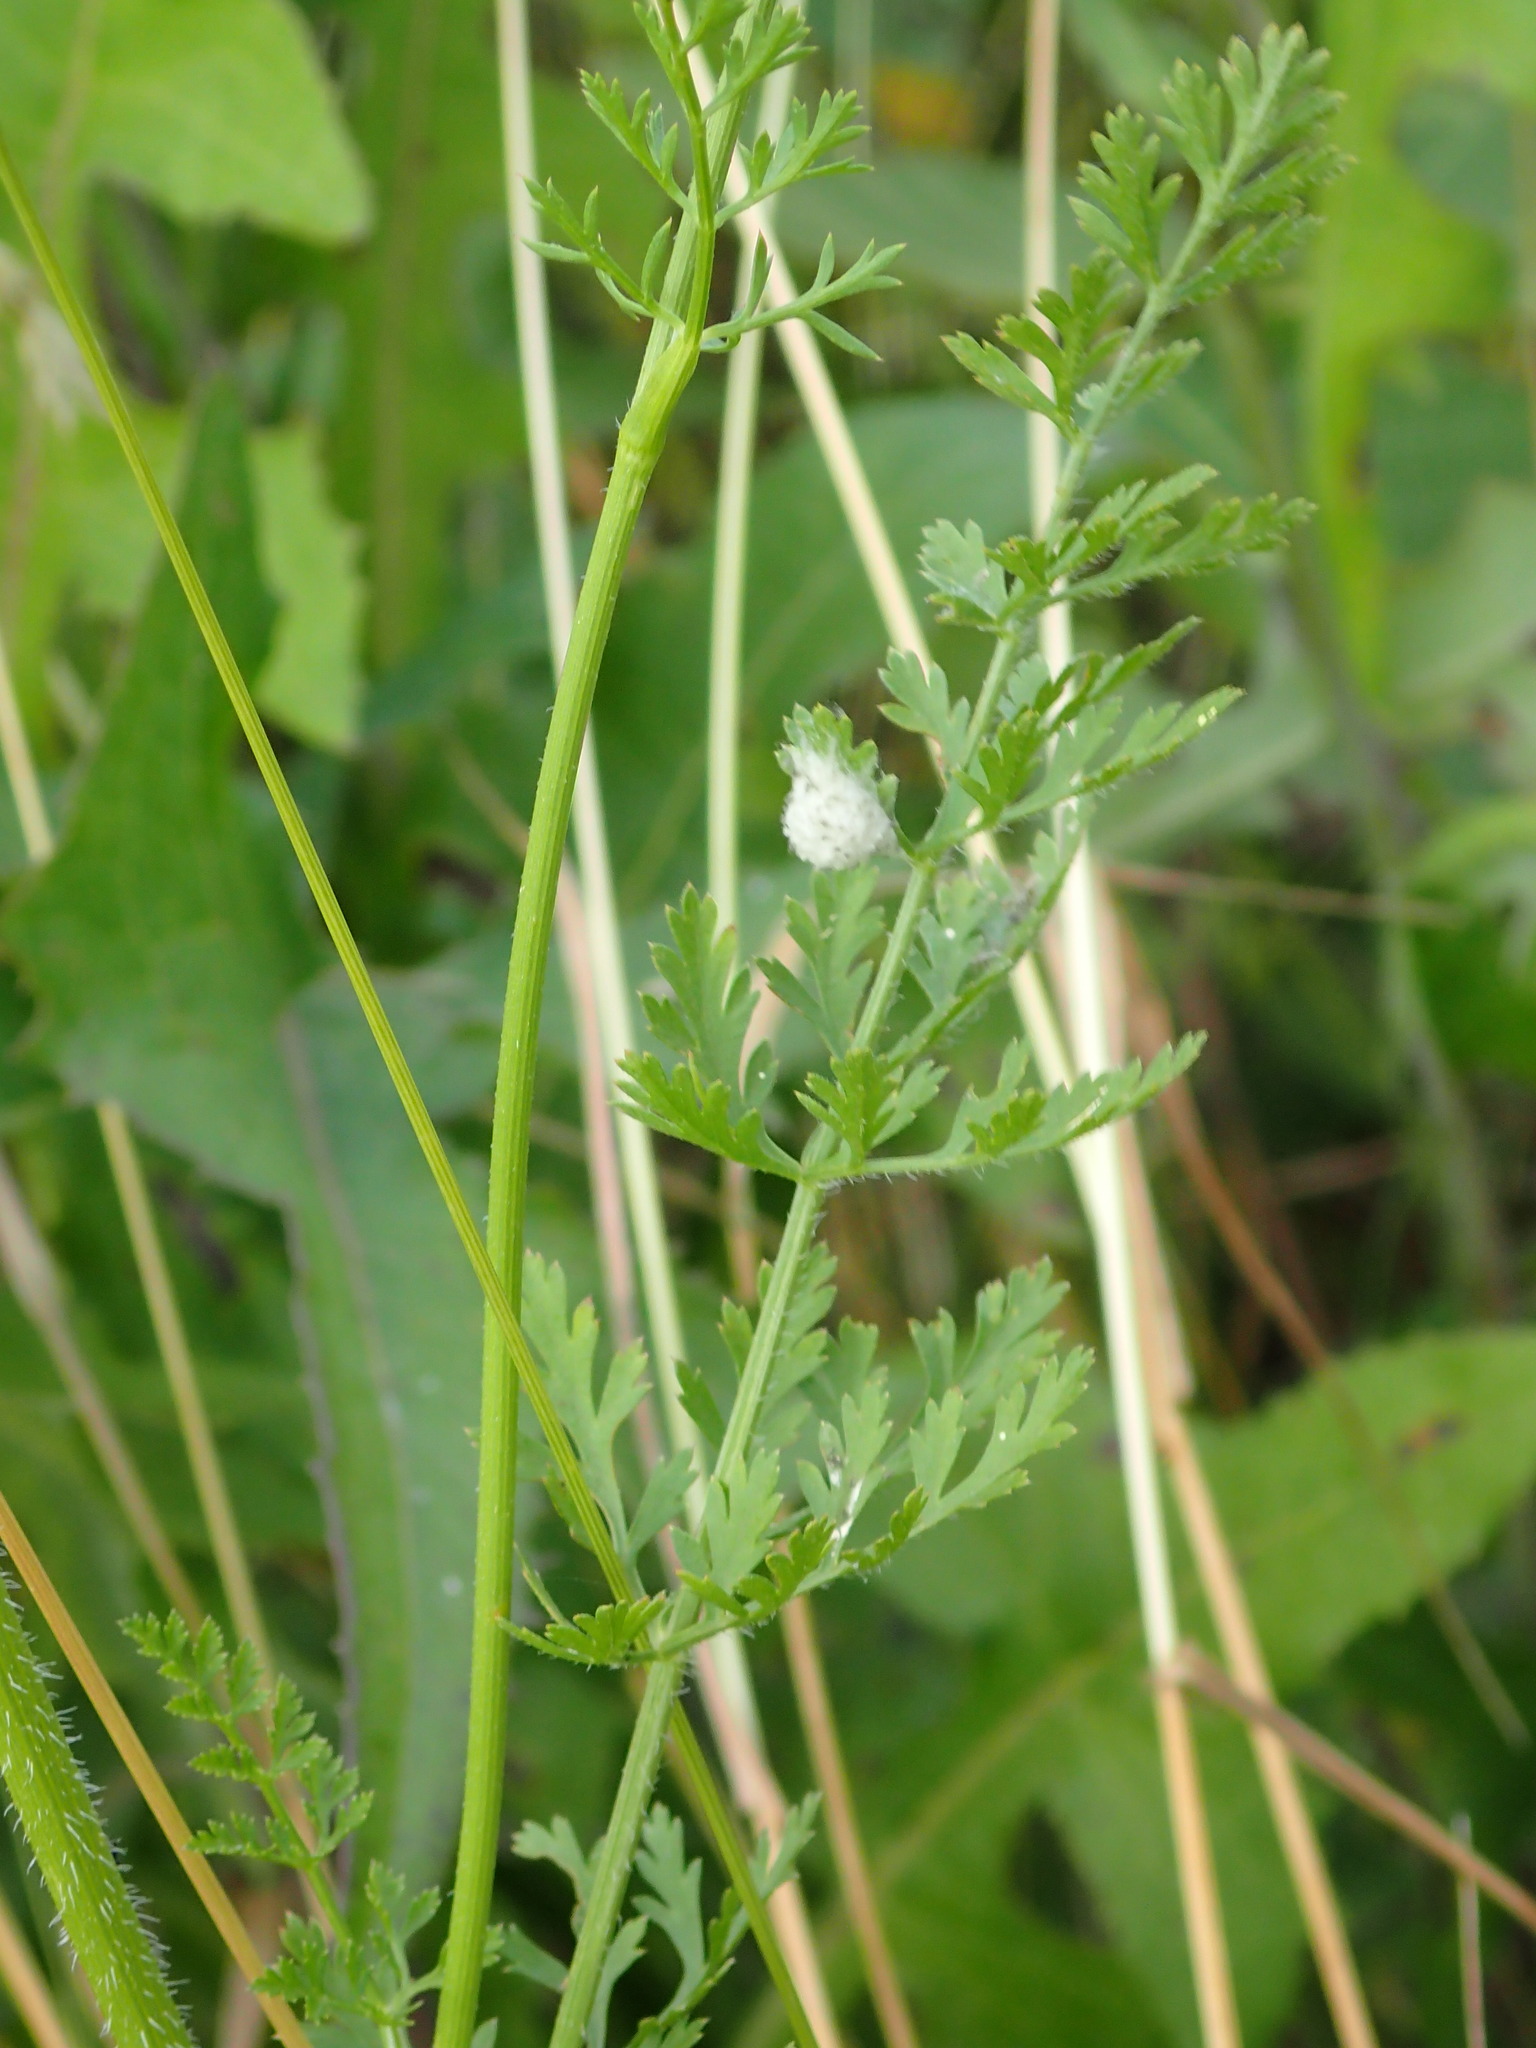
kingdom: Plantae
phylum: Tracheophyta
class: Magnoliopsida
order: Apiales
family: Apiaceae
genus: Daucus
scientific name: Daucus carota
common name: Wild carrot
